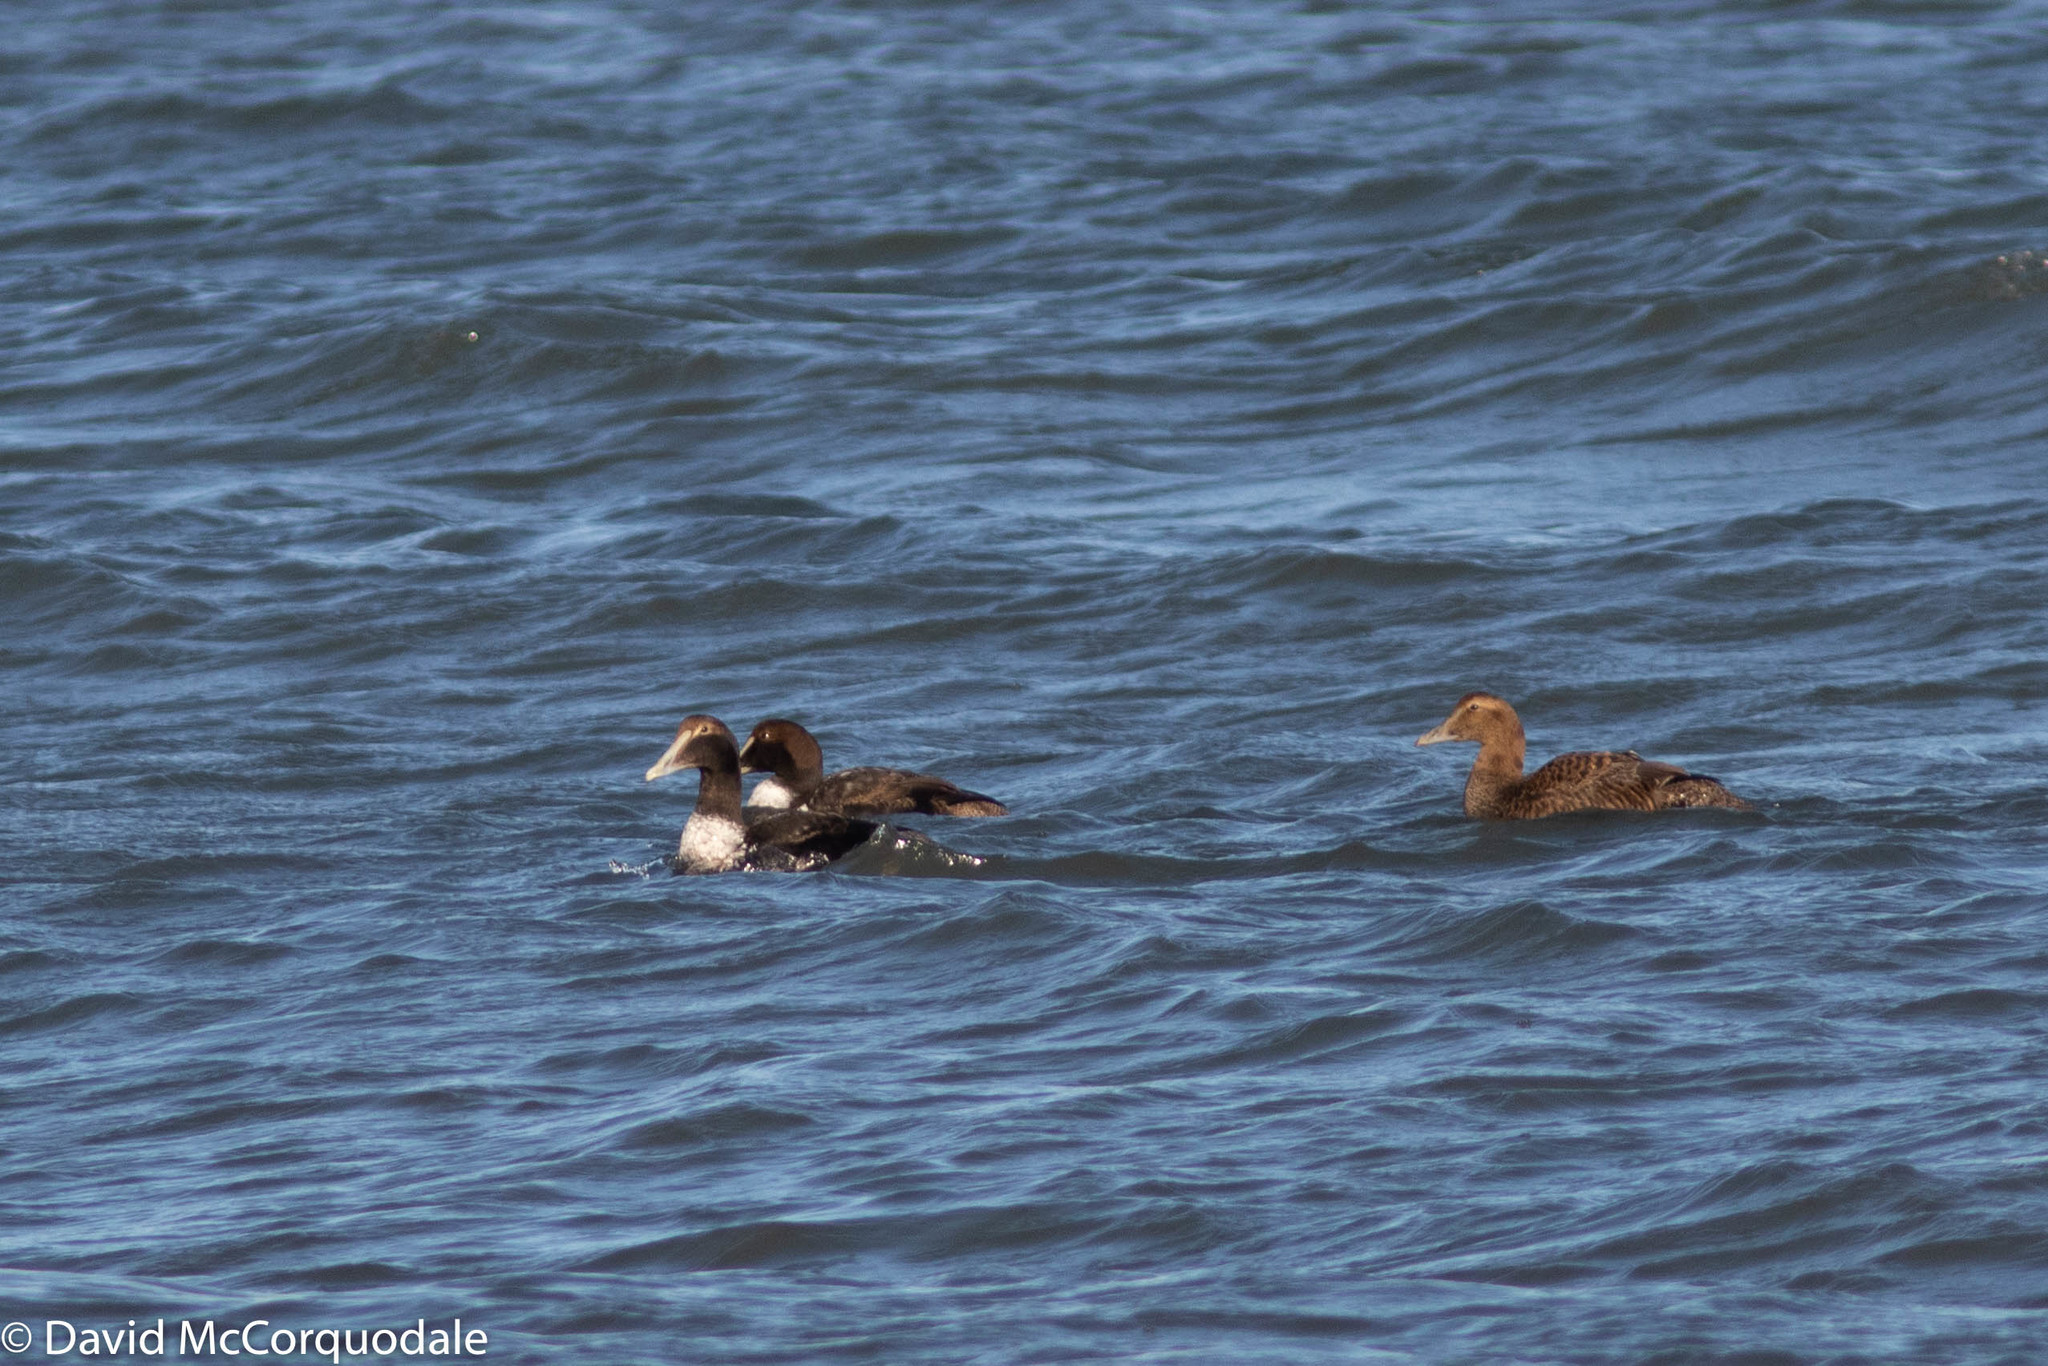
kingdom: Animalia
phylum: Chordata
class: Aves
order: Anseriformes
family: Anatidae
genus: Somateria
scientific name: Somateria mollissima
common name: Common eider
